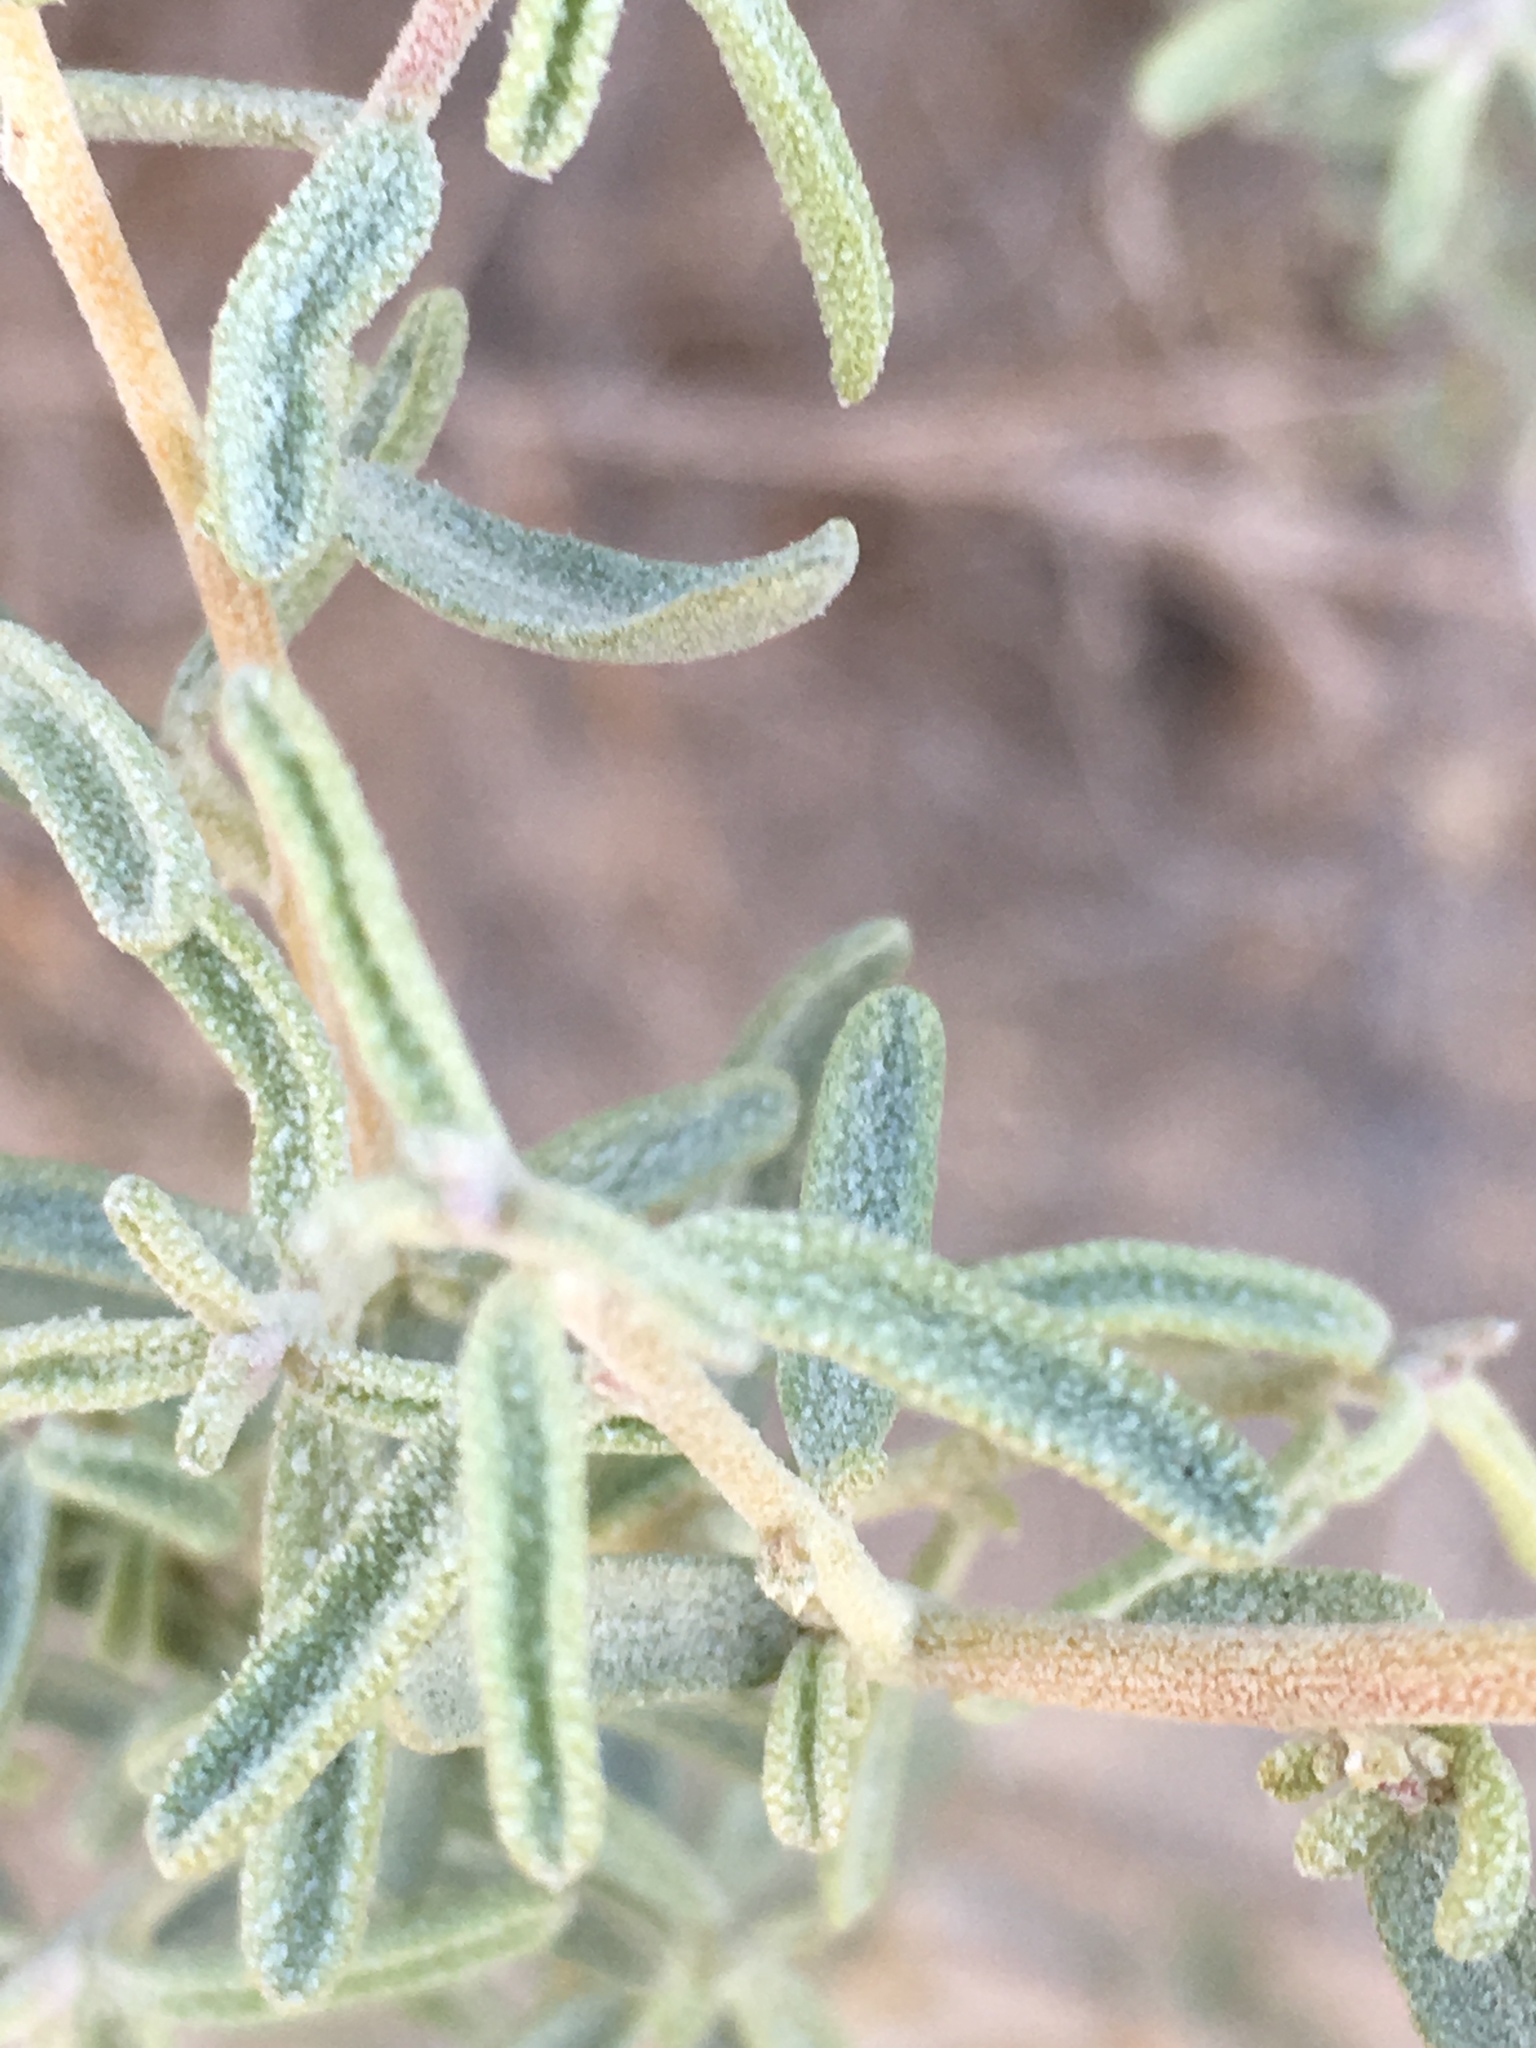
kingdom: Plantae
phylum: Tracheophyta
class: Magnoliopsida
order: Caryophyllales
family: Amaranthaceae
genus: Atriplex
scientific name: Atriplex canescens
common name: Four-wing saltbush
